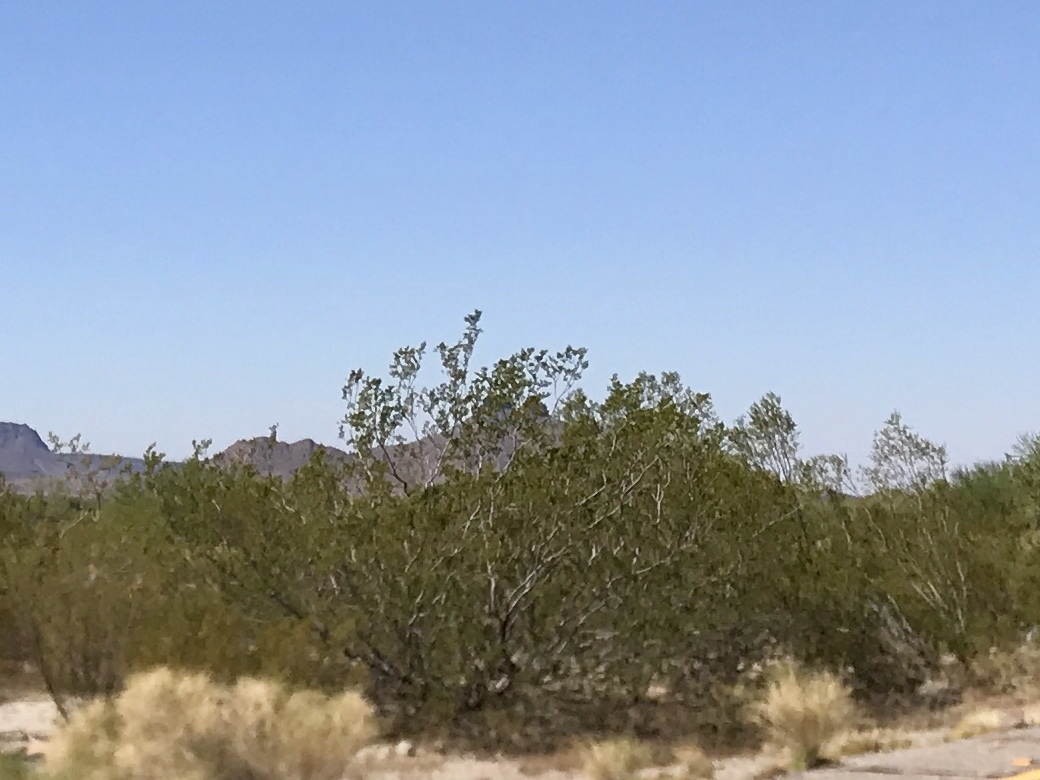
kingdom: Plantae
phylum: Tracheophyta
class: Magnoliopsida
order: Zygophyllales
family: Zygophyllaceae
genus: Larrea
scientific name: Larrea tridentata
